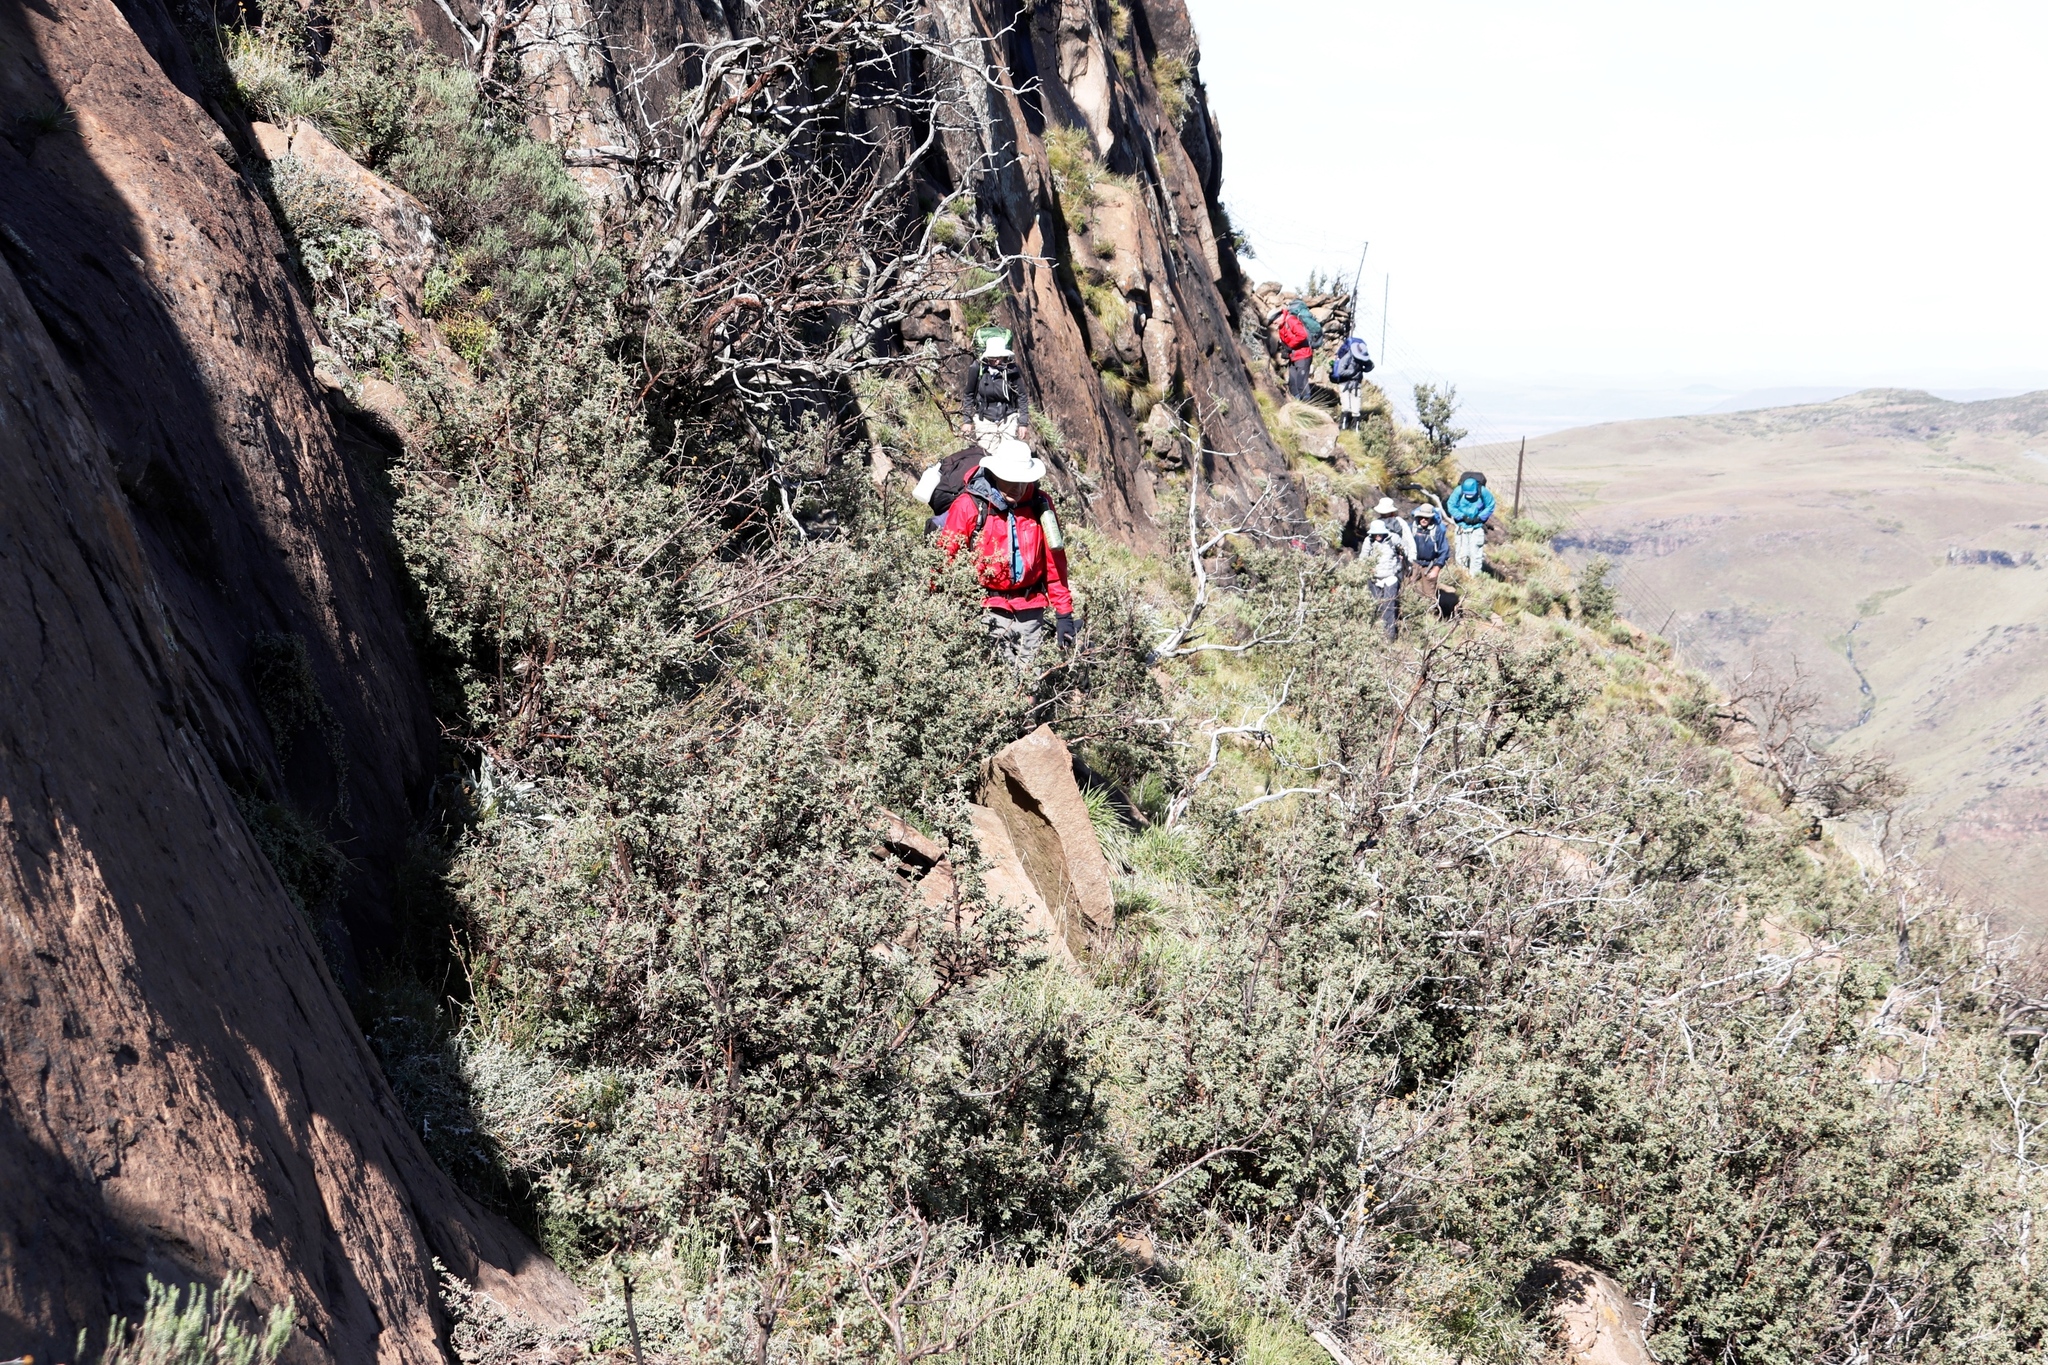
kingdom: Plantae
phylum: Tracheophyta
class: Magnoliopsida
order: Rosales
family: Rosaceae
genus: Leucosidea
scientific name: Leucosidea sericea
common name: Oldwood
